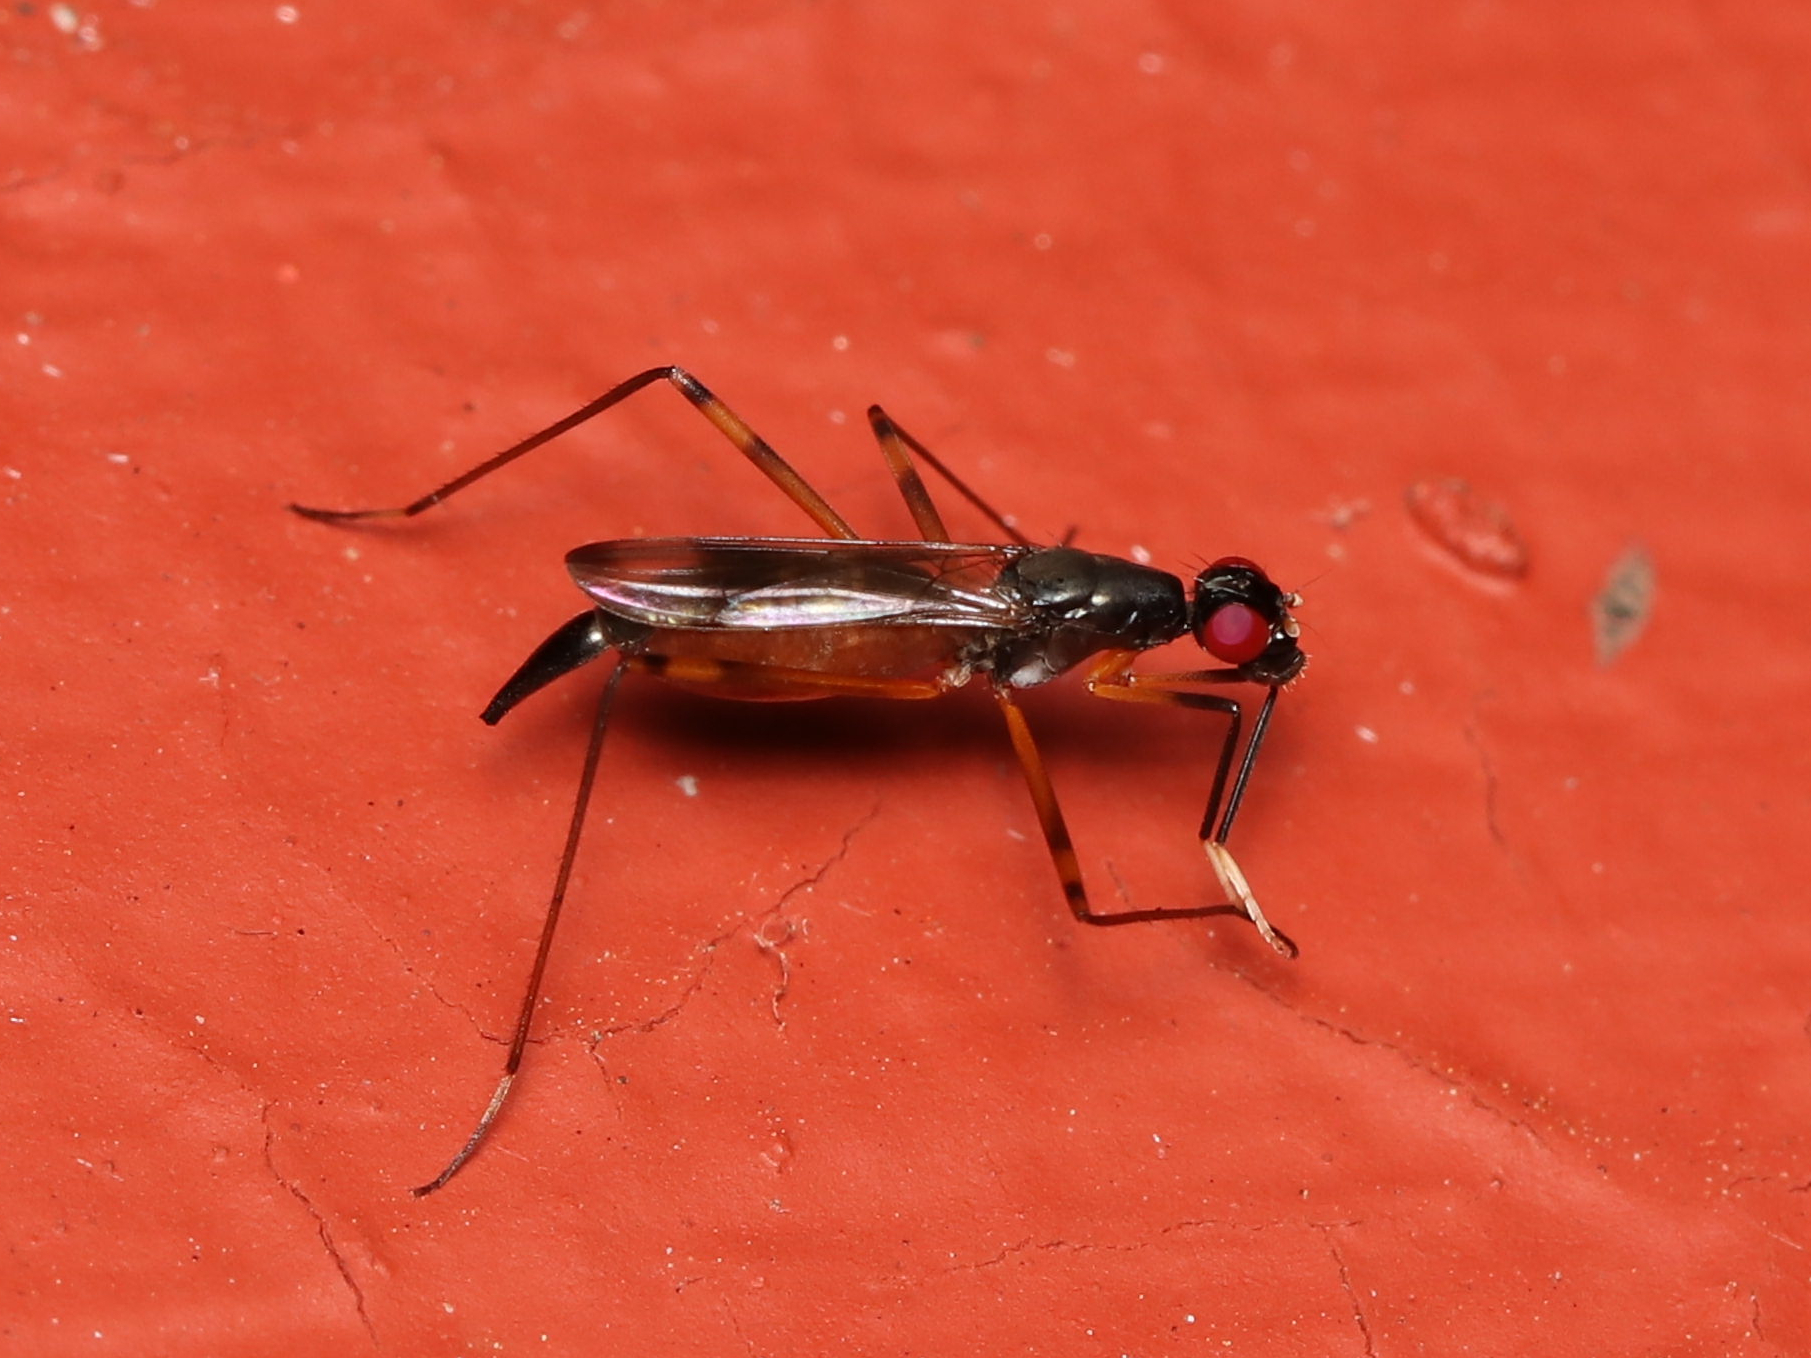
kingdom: Animalia
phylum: Arthropoda
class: Insecta
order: Diptera
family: Micropezidae
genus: Rainieria
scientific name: Rainieria antennaepes
